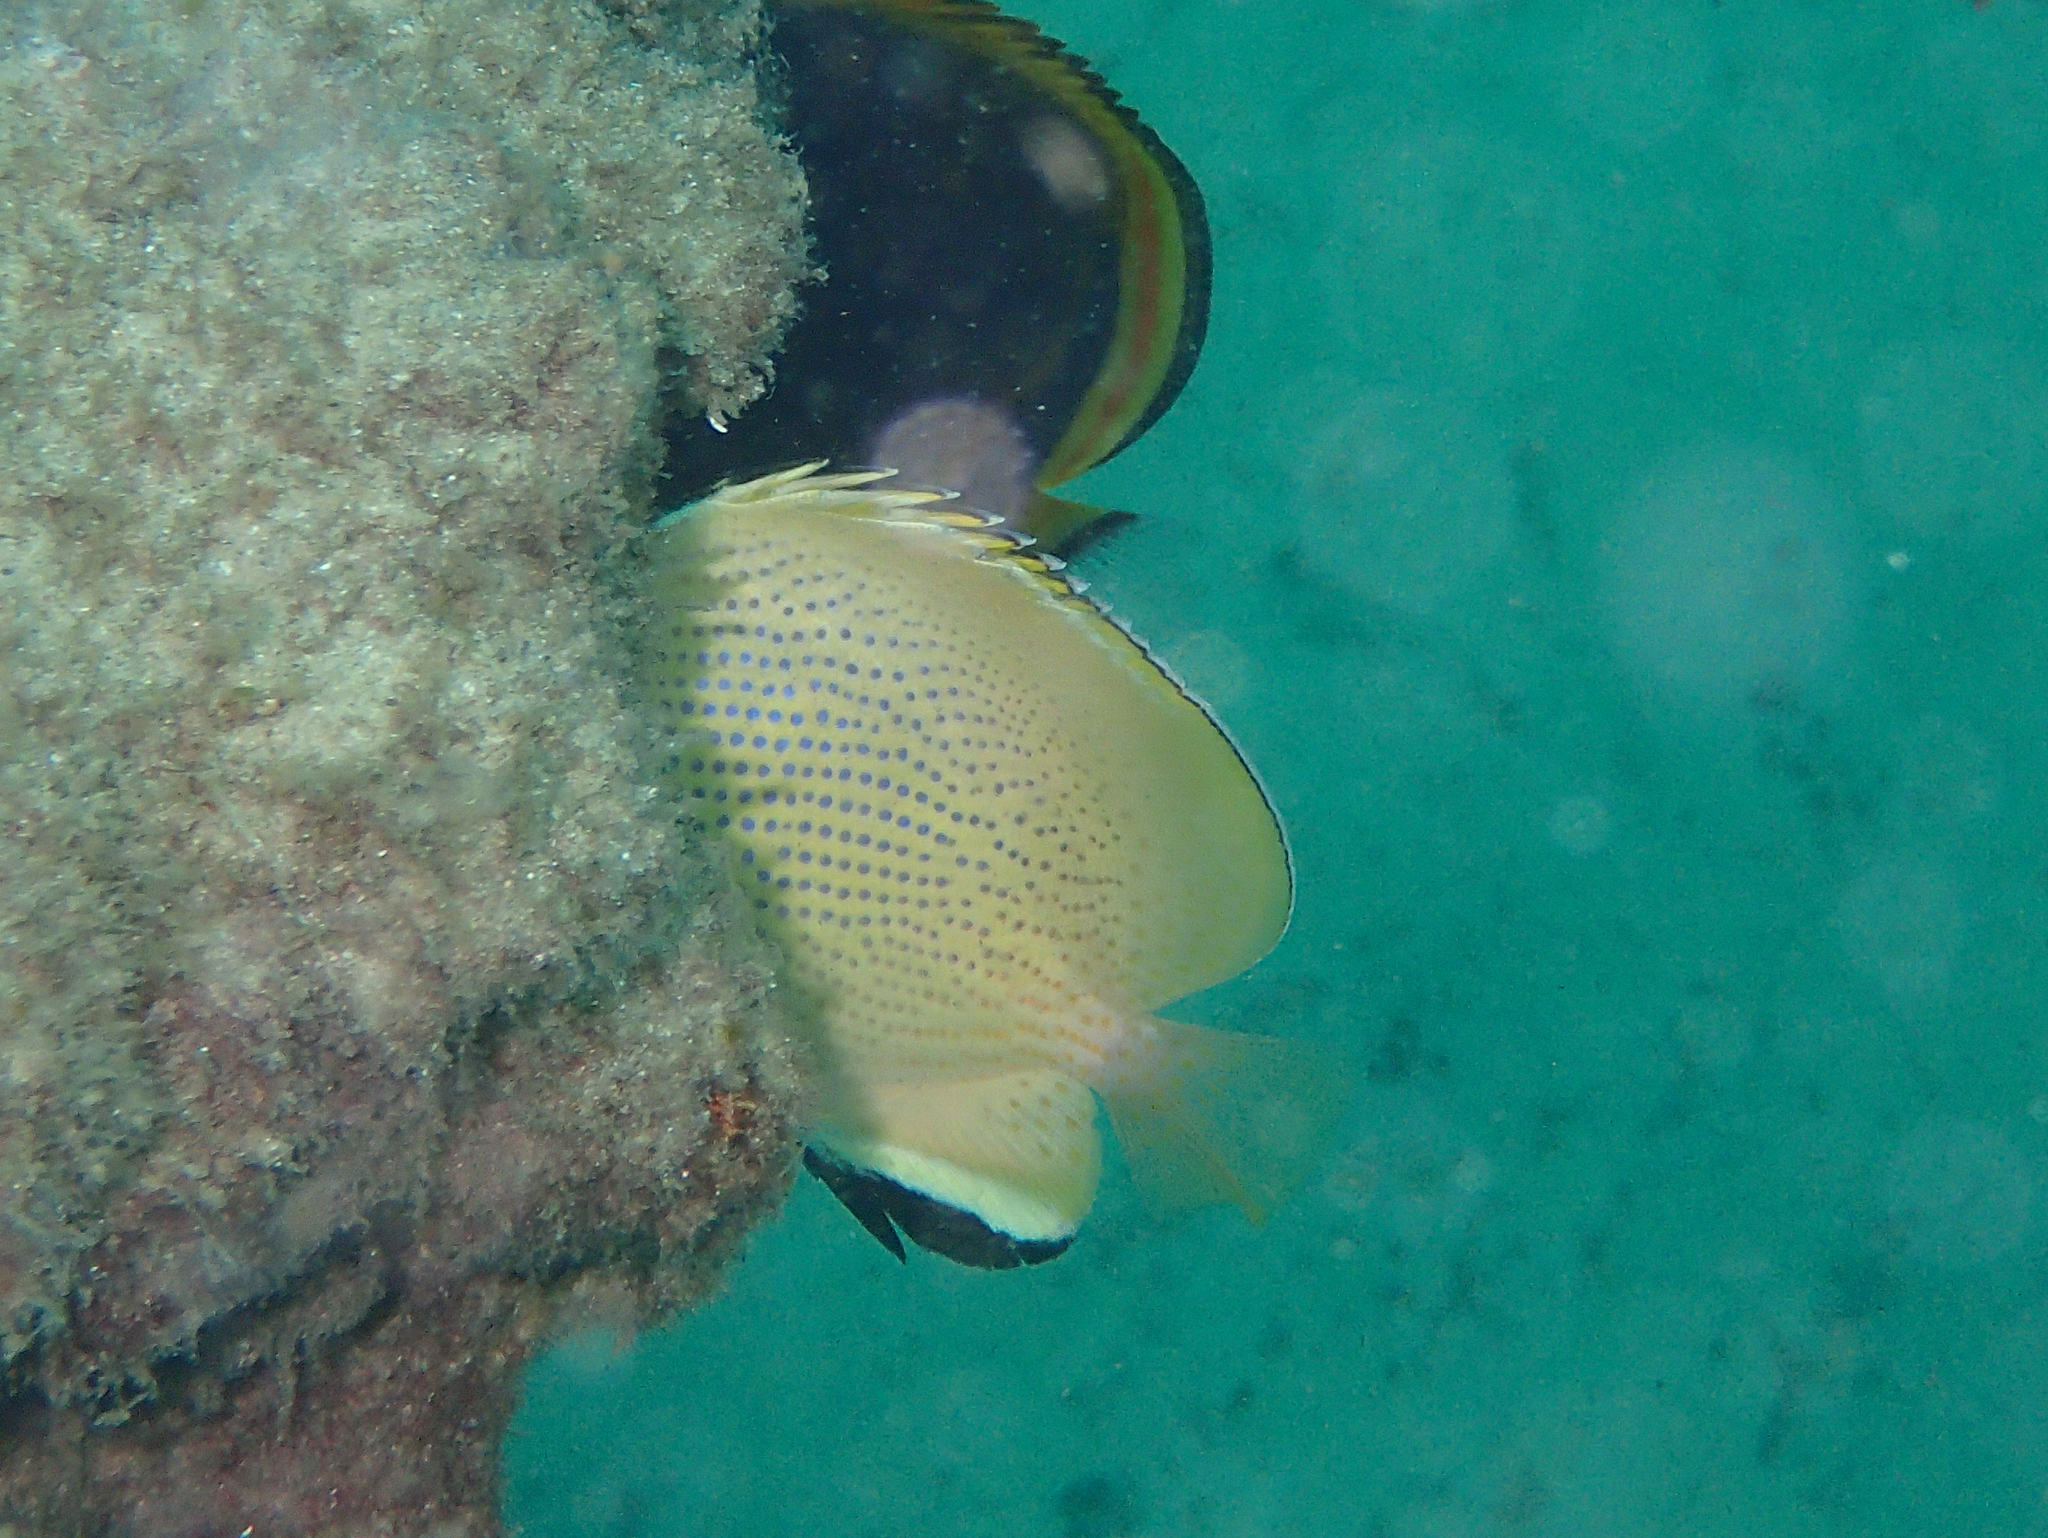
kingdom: Animalia
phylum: Chordata
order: Perciformes
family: Chaetodontidae
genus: Chaetodon
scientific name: Chaetodon citrinellus
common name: Speckled butterflyfish
